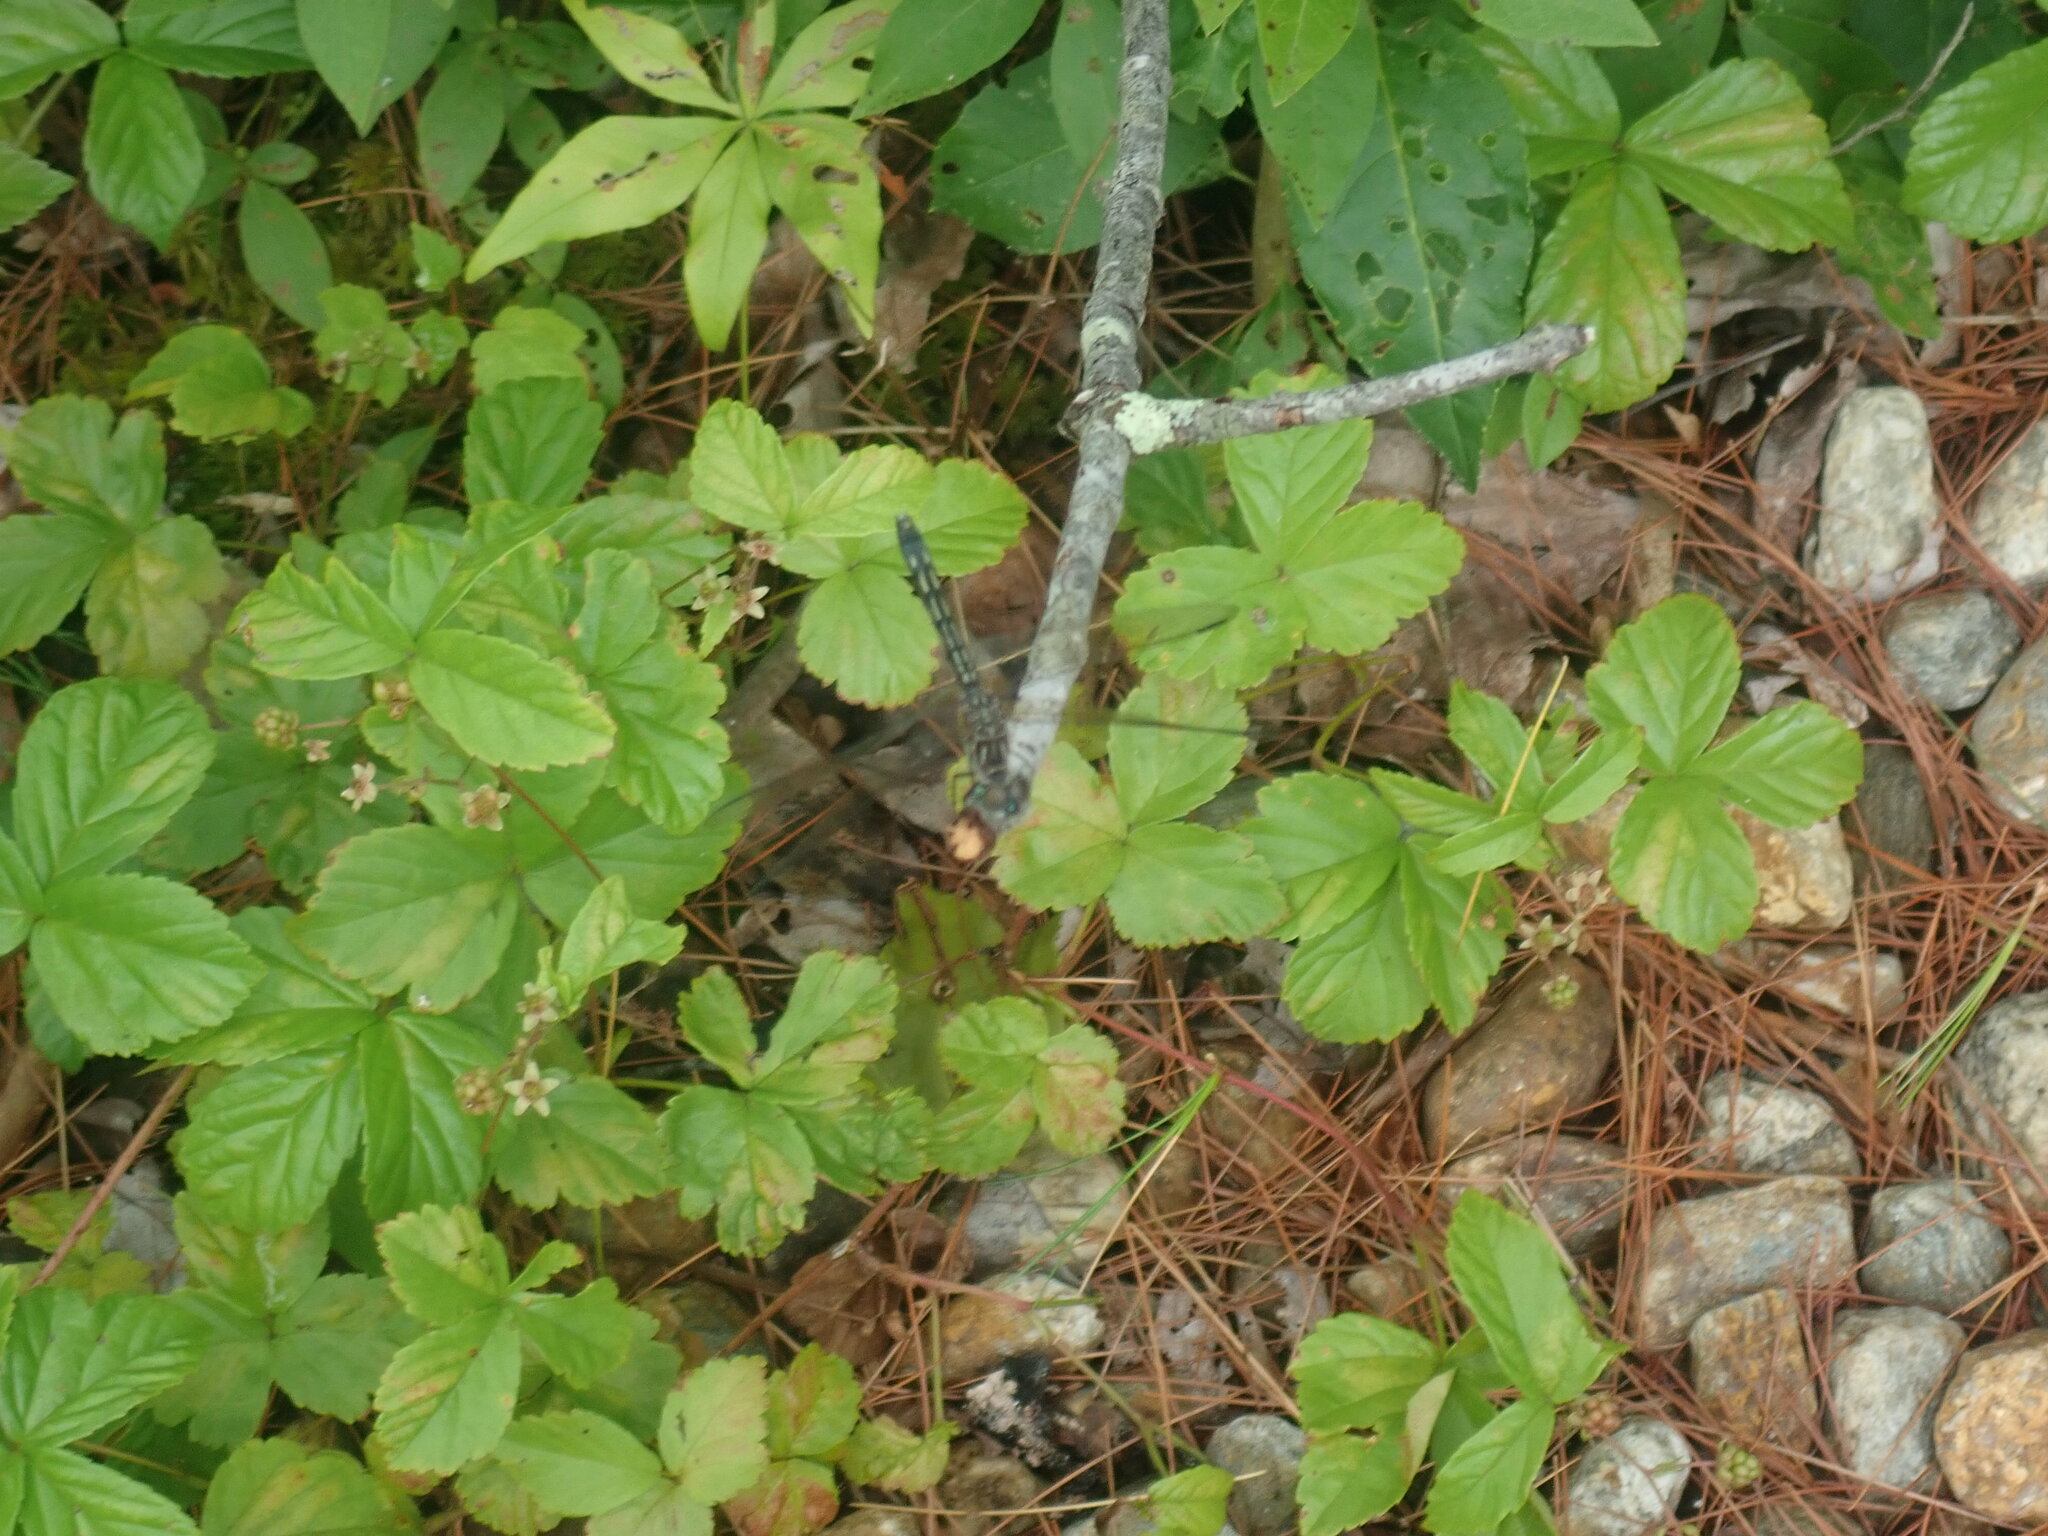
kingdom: Animalia
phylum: Arthropoda
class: Insecta
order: Odonata
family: Libellulidae
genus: Pachydiplax
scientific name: Pachydiplax longipennis
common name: Blue dasher
